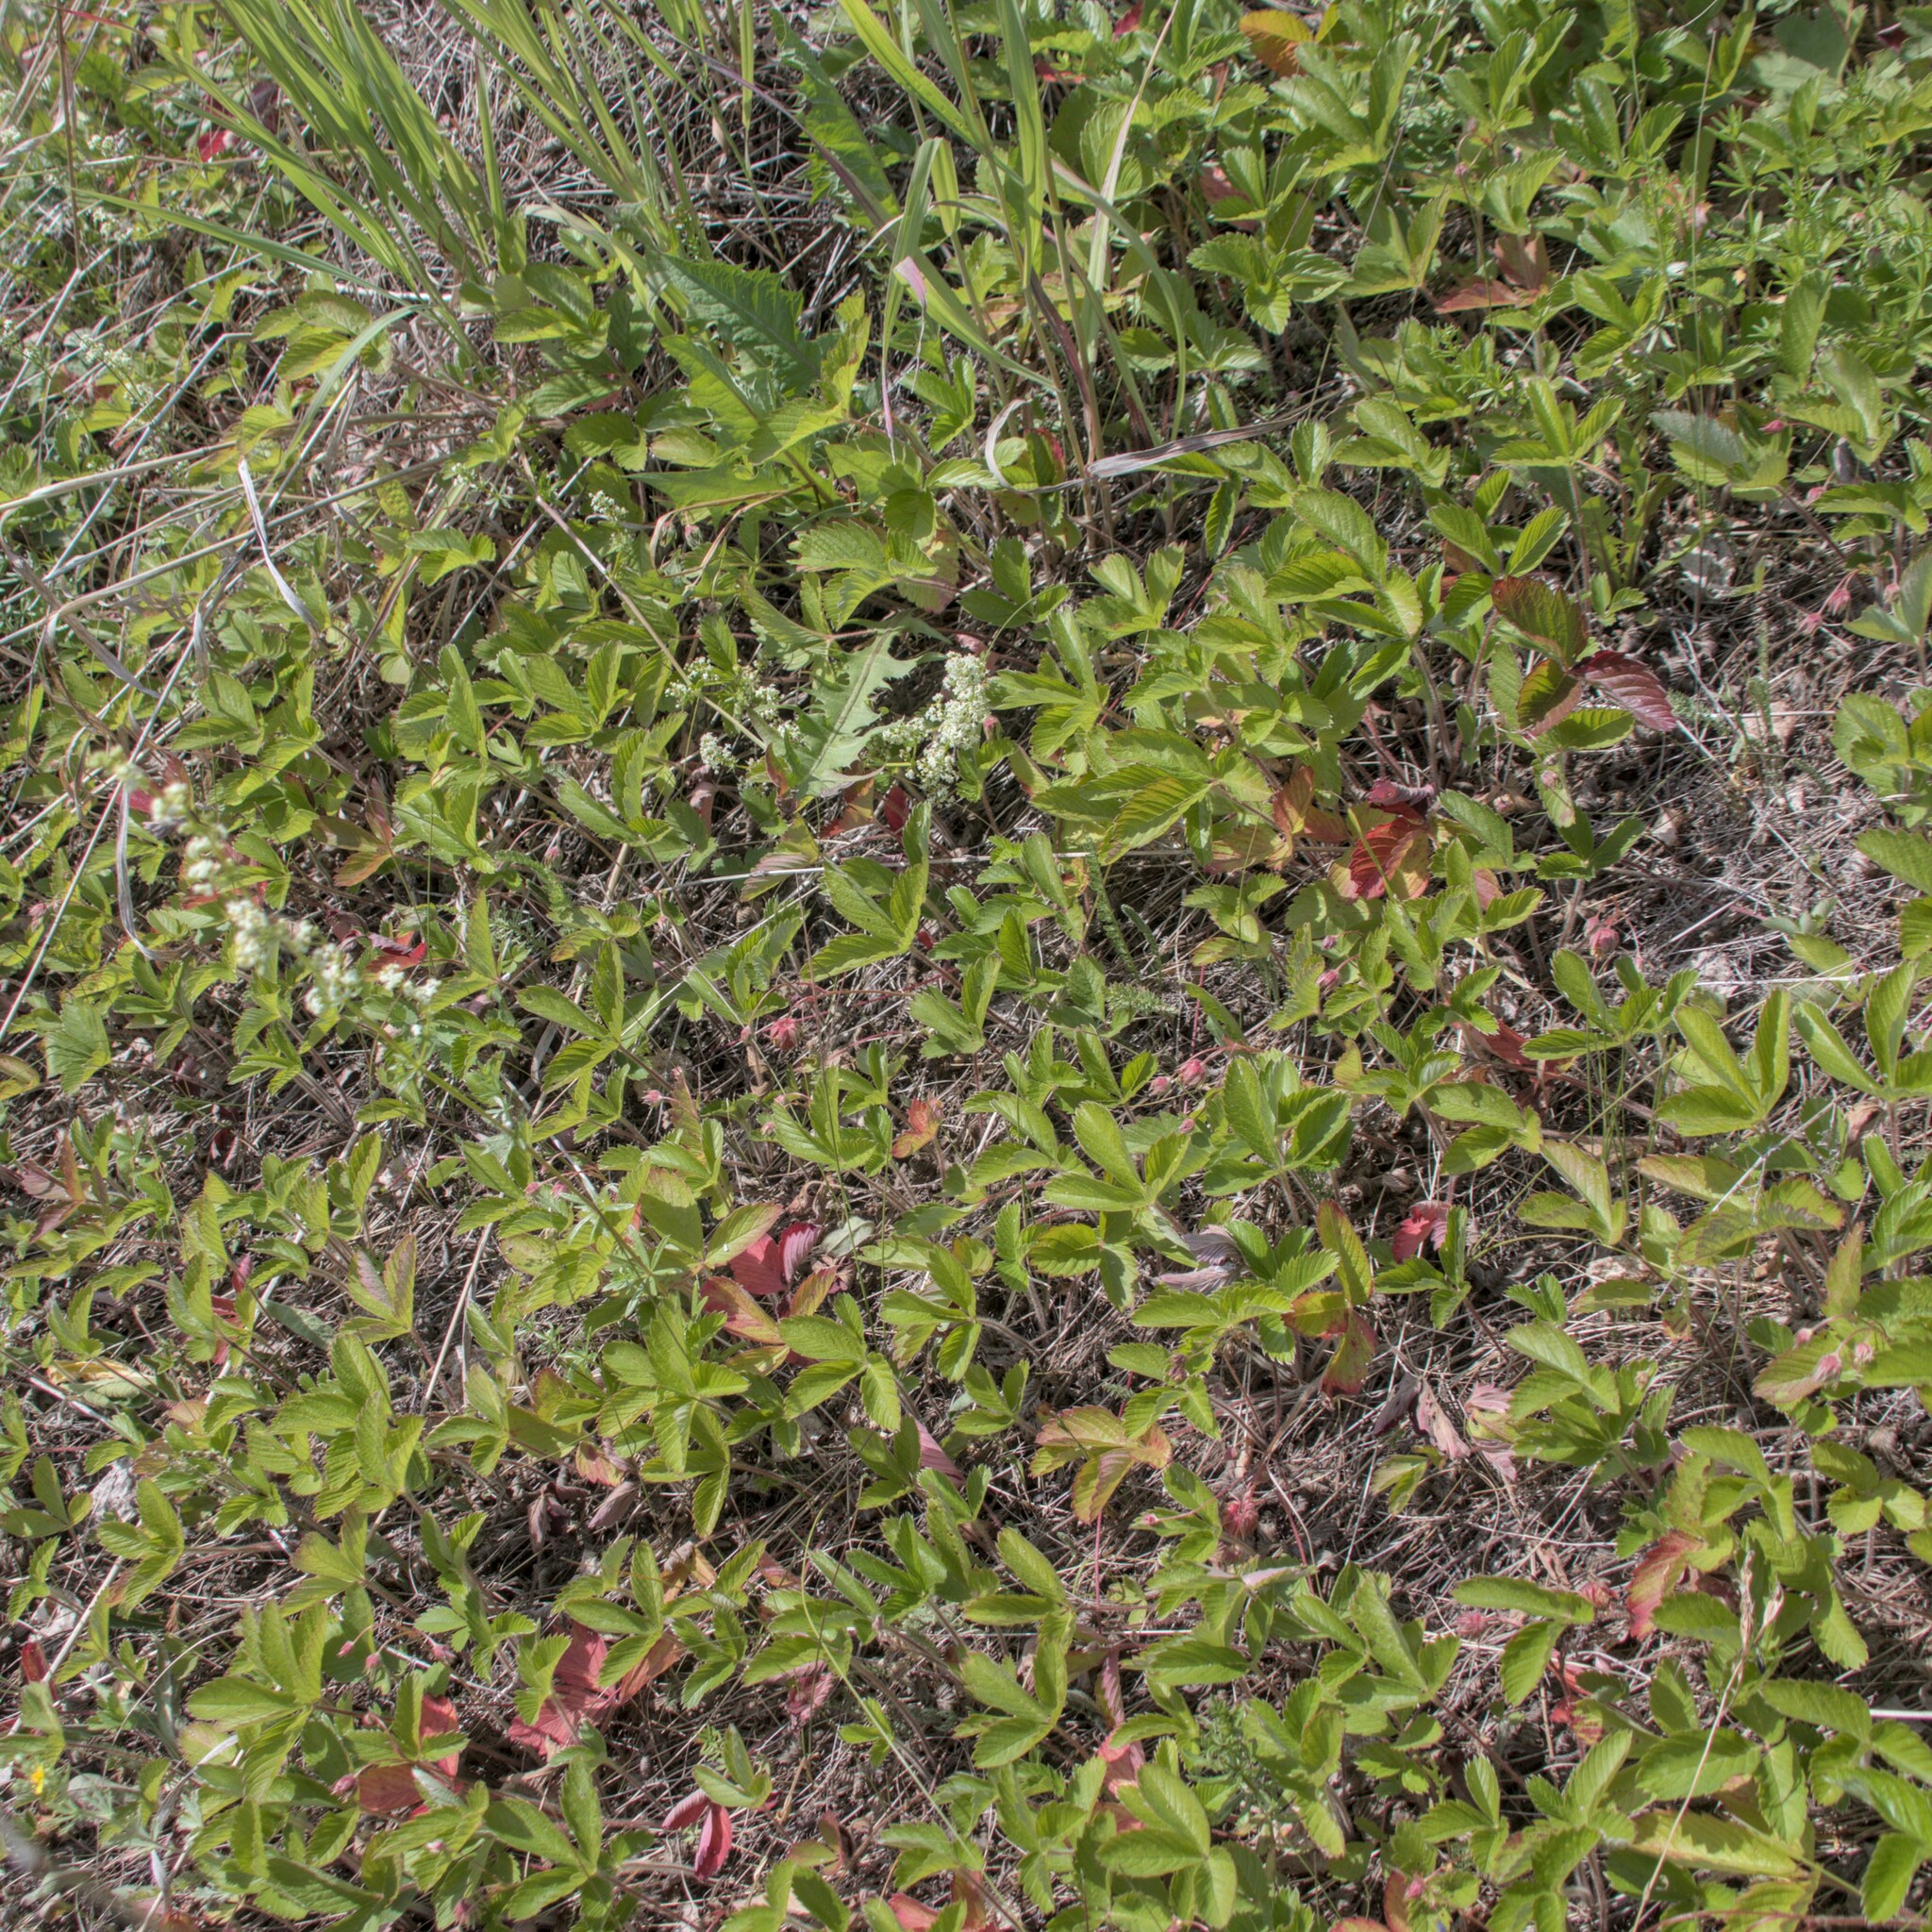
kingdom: Plantae
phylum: Tracheophyta
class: Magnoliopsida
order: Rosales
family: Rosaceae
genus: Fragaria
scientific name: Fragaria viridis
